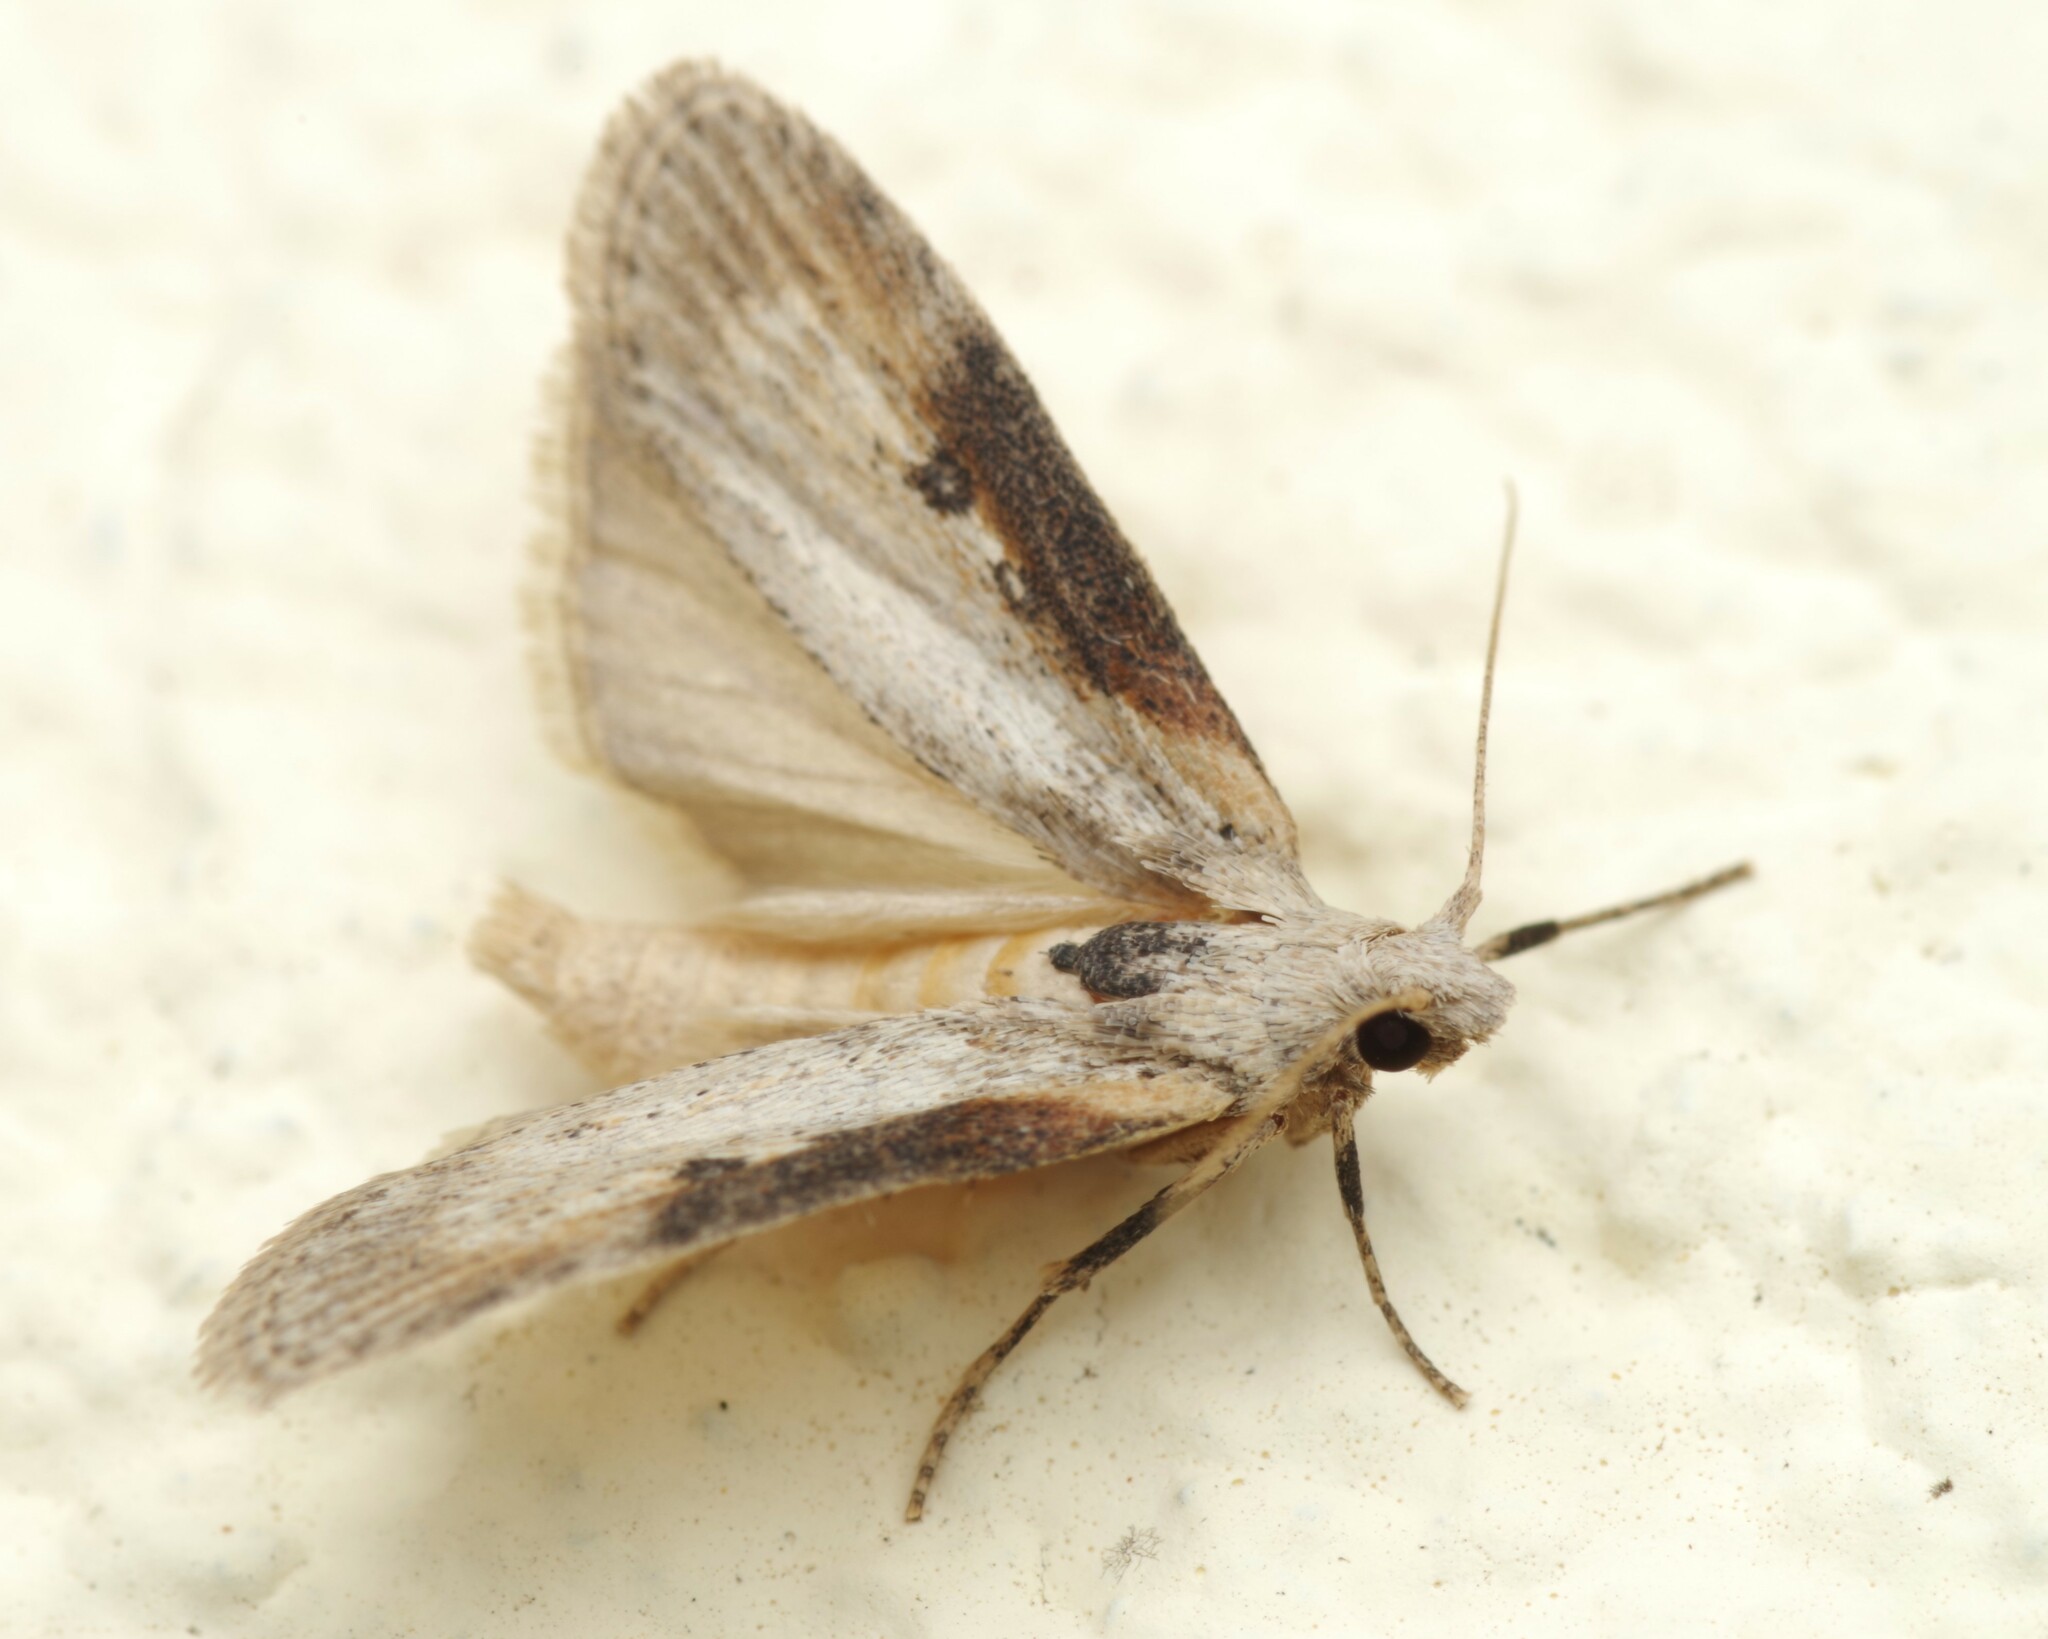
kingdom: Animalia
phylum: Arthropoda
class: Insecta
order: Lepidoptera
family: Pyralidae
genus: Lamoria
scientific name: Lamoria anella
